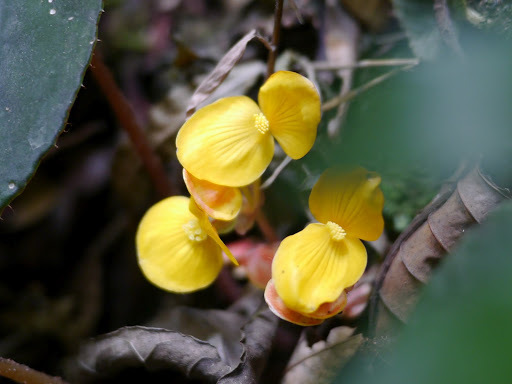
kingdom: Plantae
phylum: Tracheophyta
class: Magnoliopsida
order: Cucurbitales
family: Begoniaceae
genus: Begonia
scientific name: Begonia schaeferi
